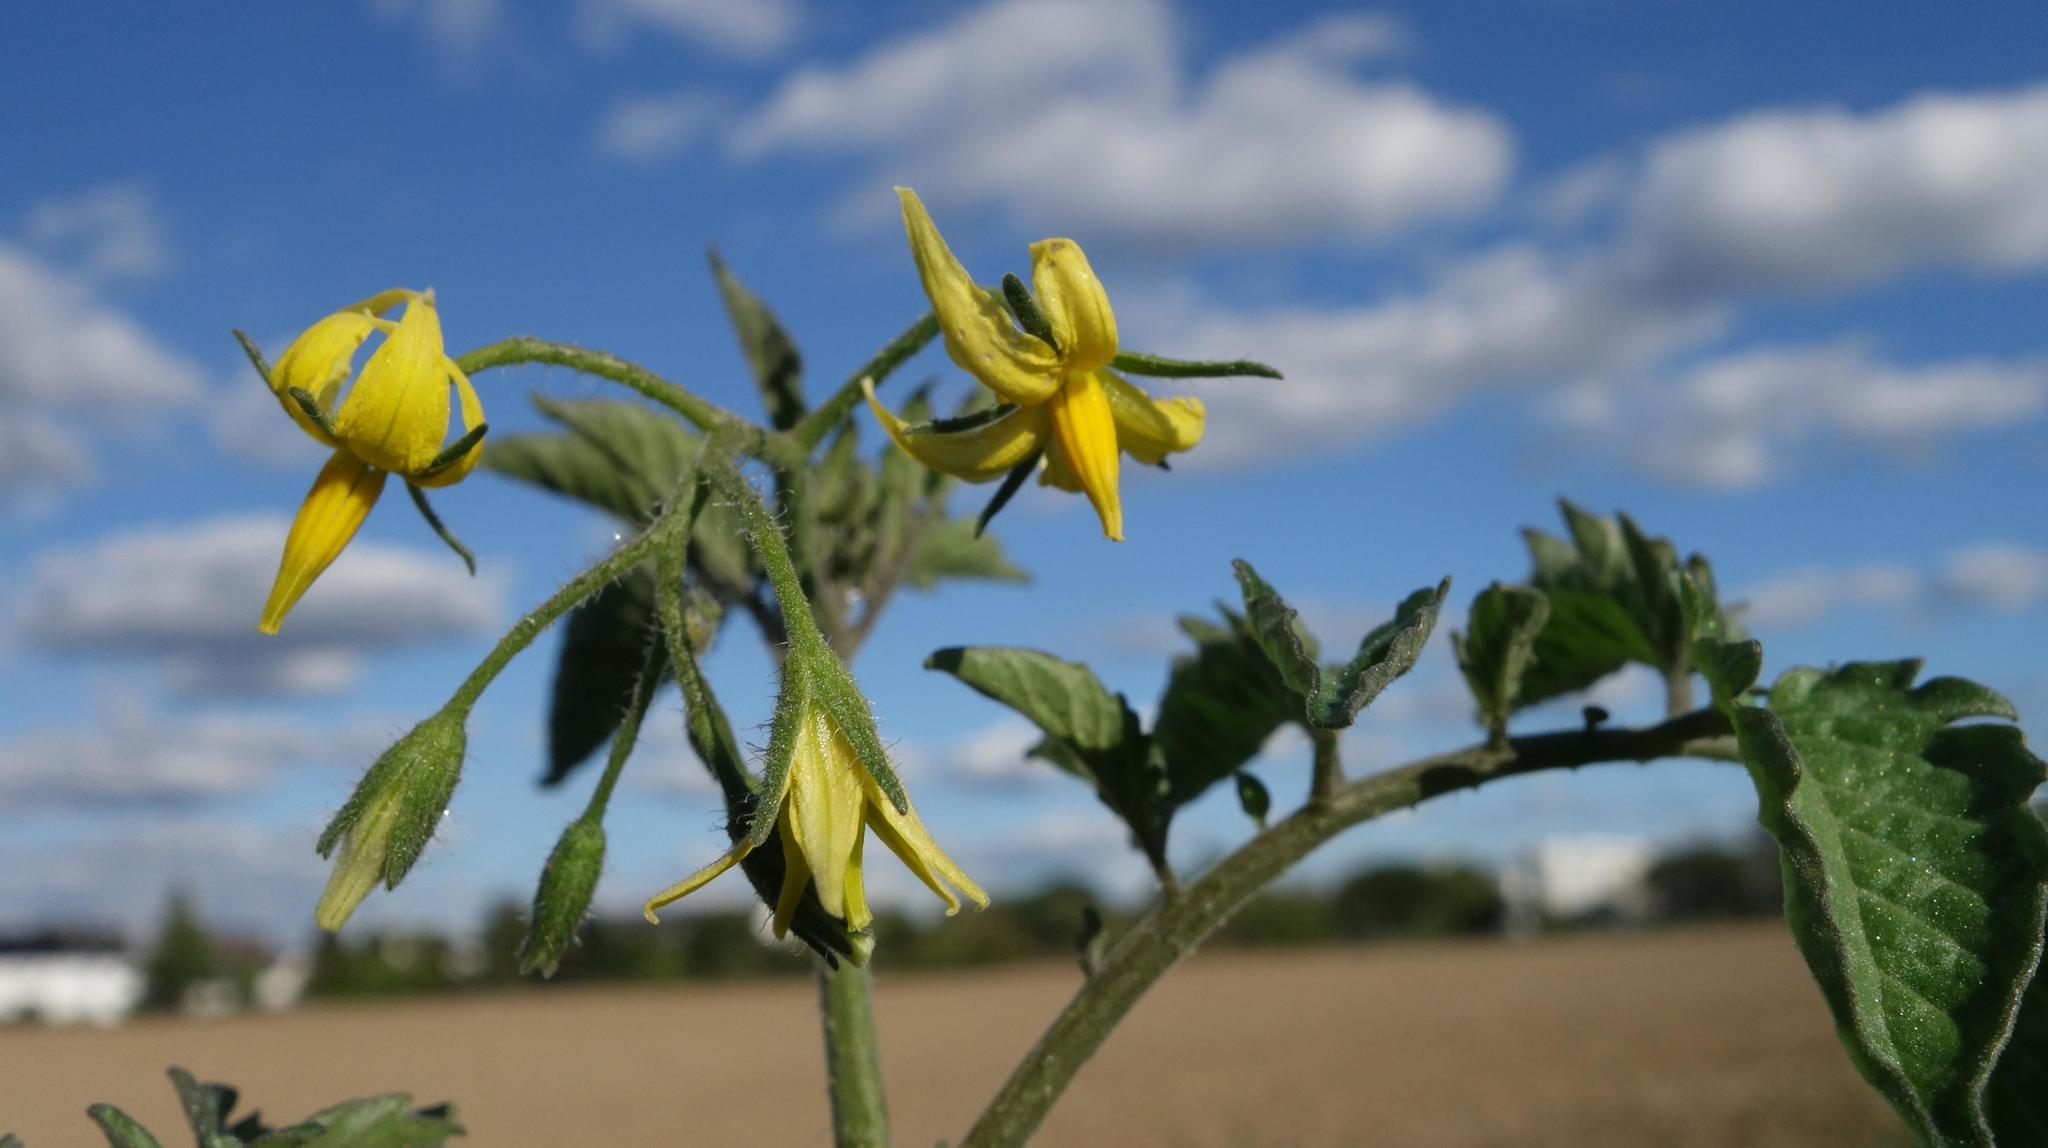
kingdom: Plantae
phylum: Tracheophyta
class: Magnoliopsida
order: Solanales
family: Solanaceae
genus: Solanum
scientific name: Solanum lycopersicum
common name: Garden tomato
